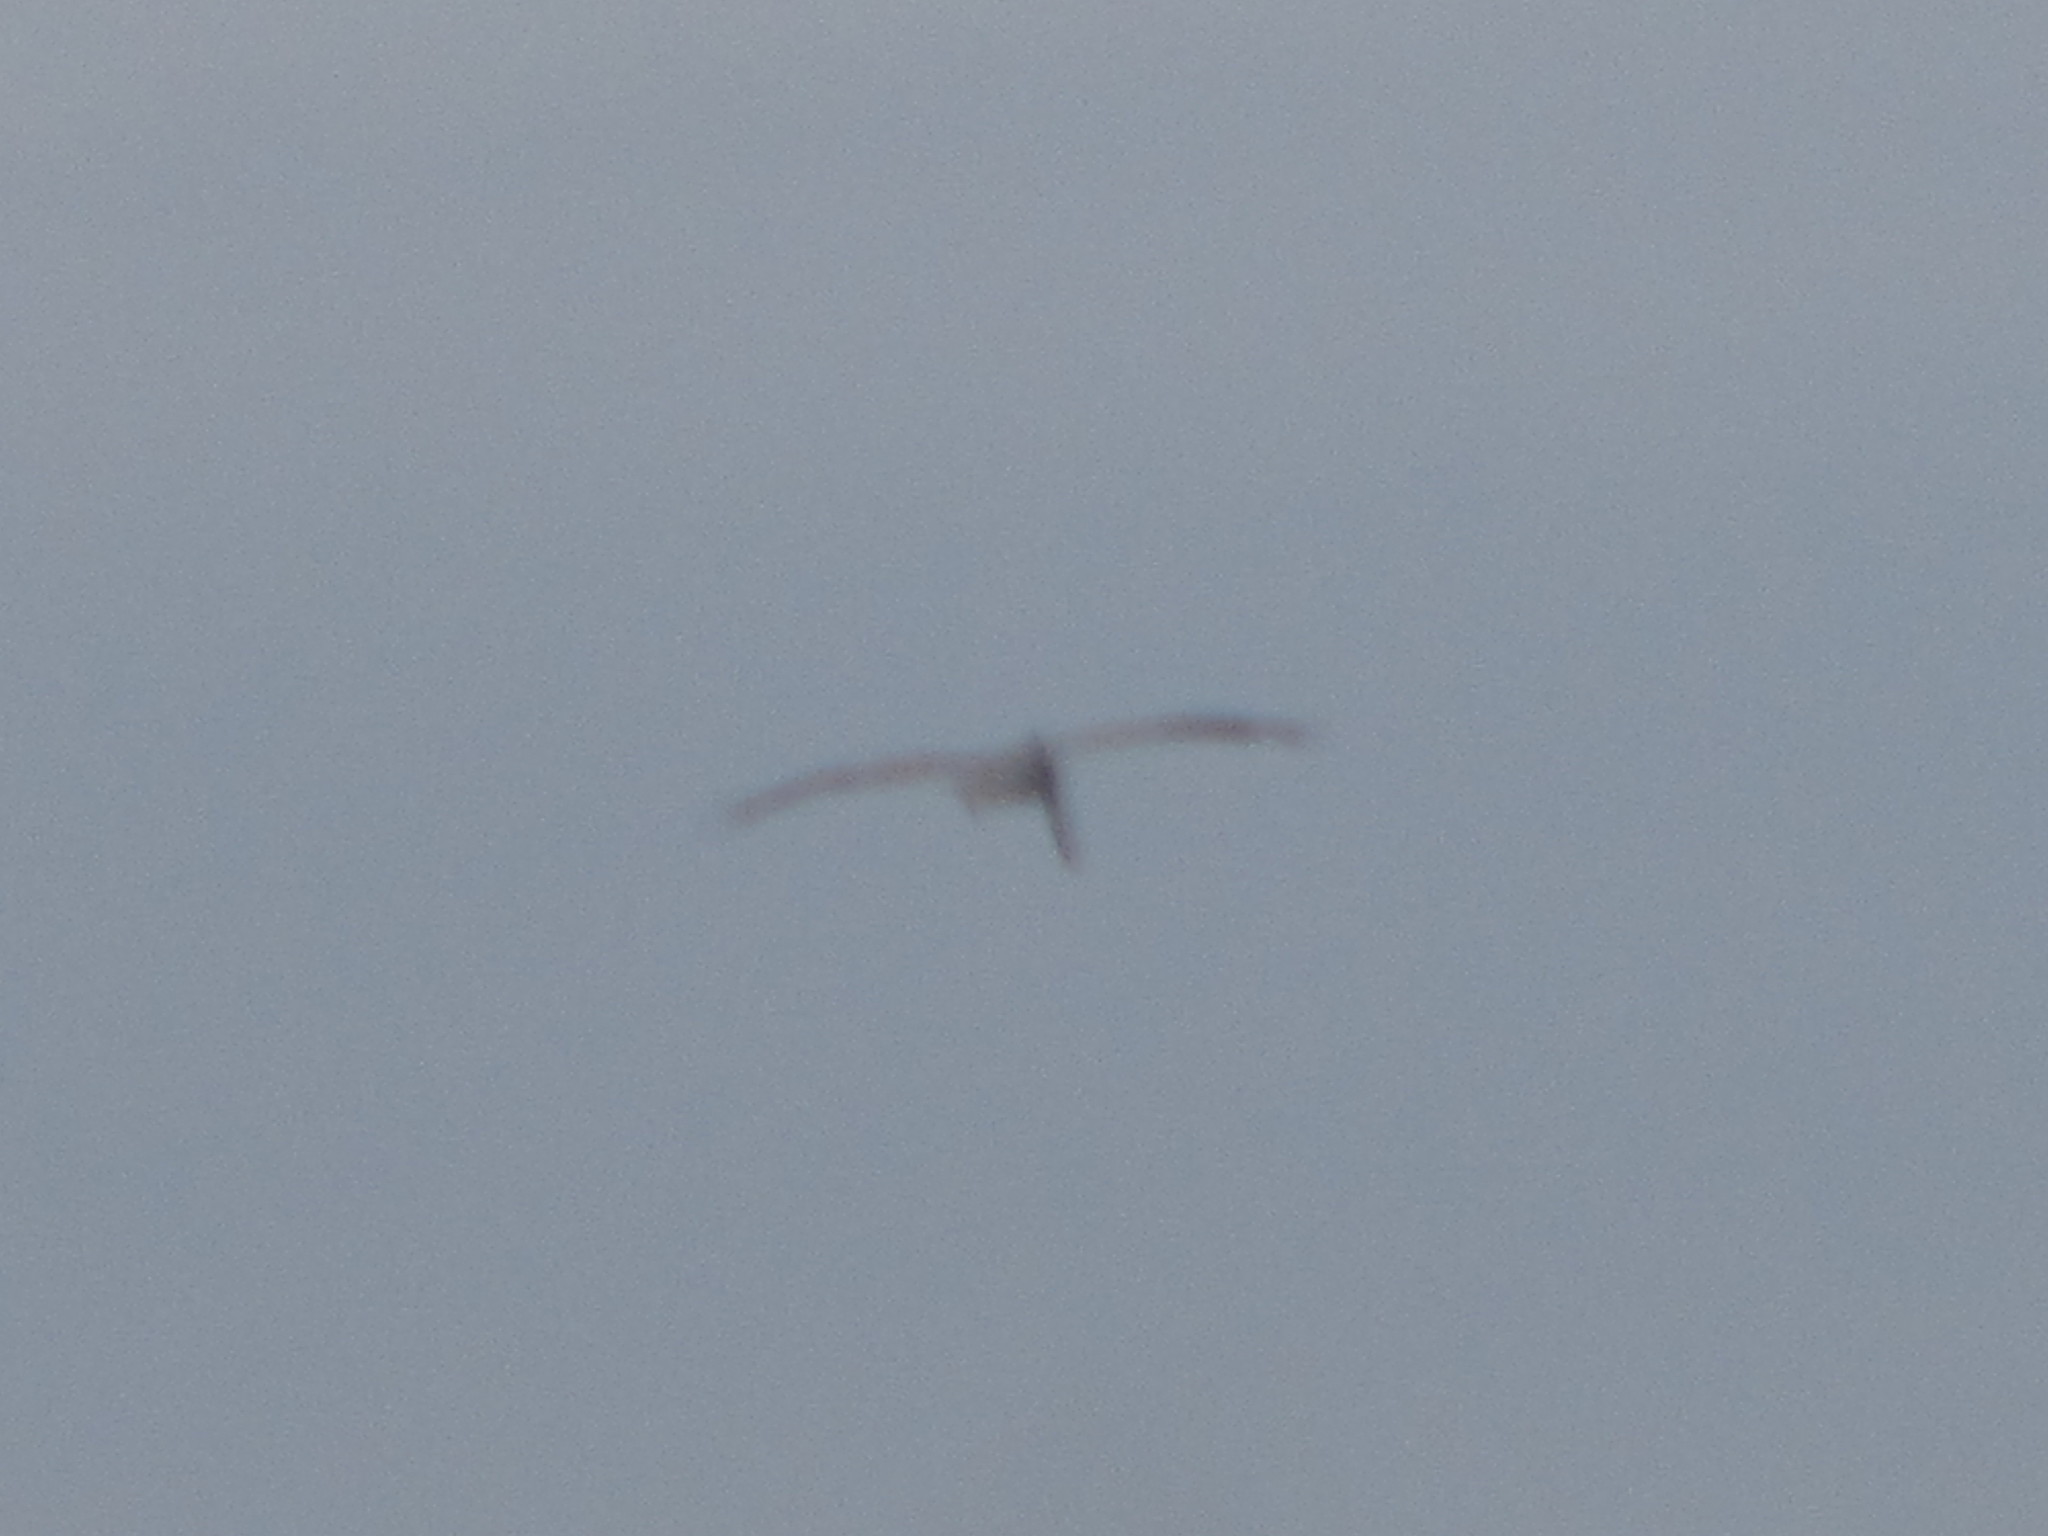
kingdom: Animalia
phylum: Chordata
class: Aves
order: Pelecaniformes
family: Pelecanidae
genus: Pelecanus
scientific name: Pelecanus occidentalis
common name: Brown pelican
